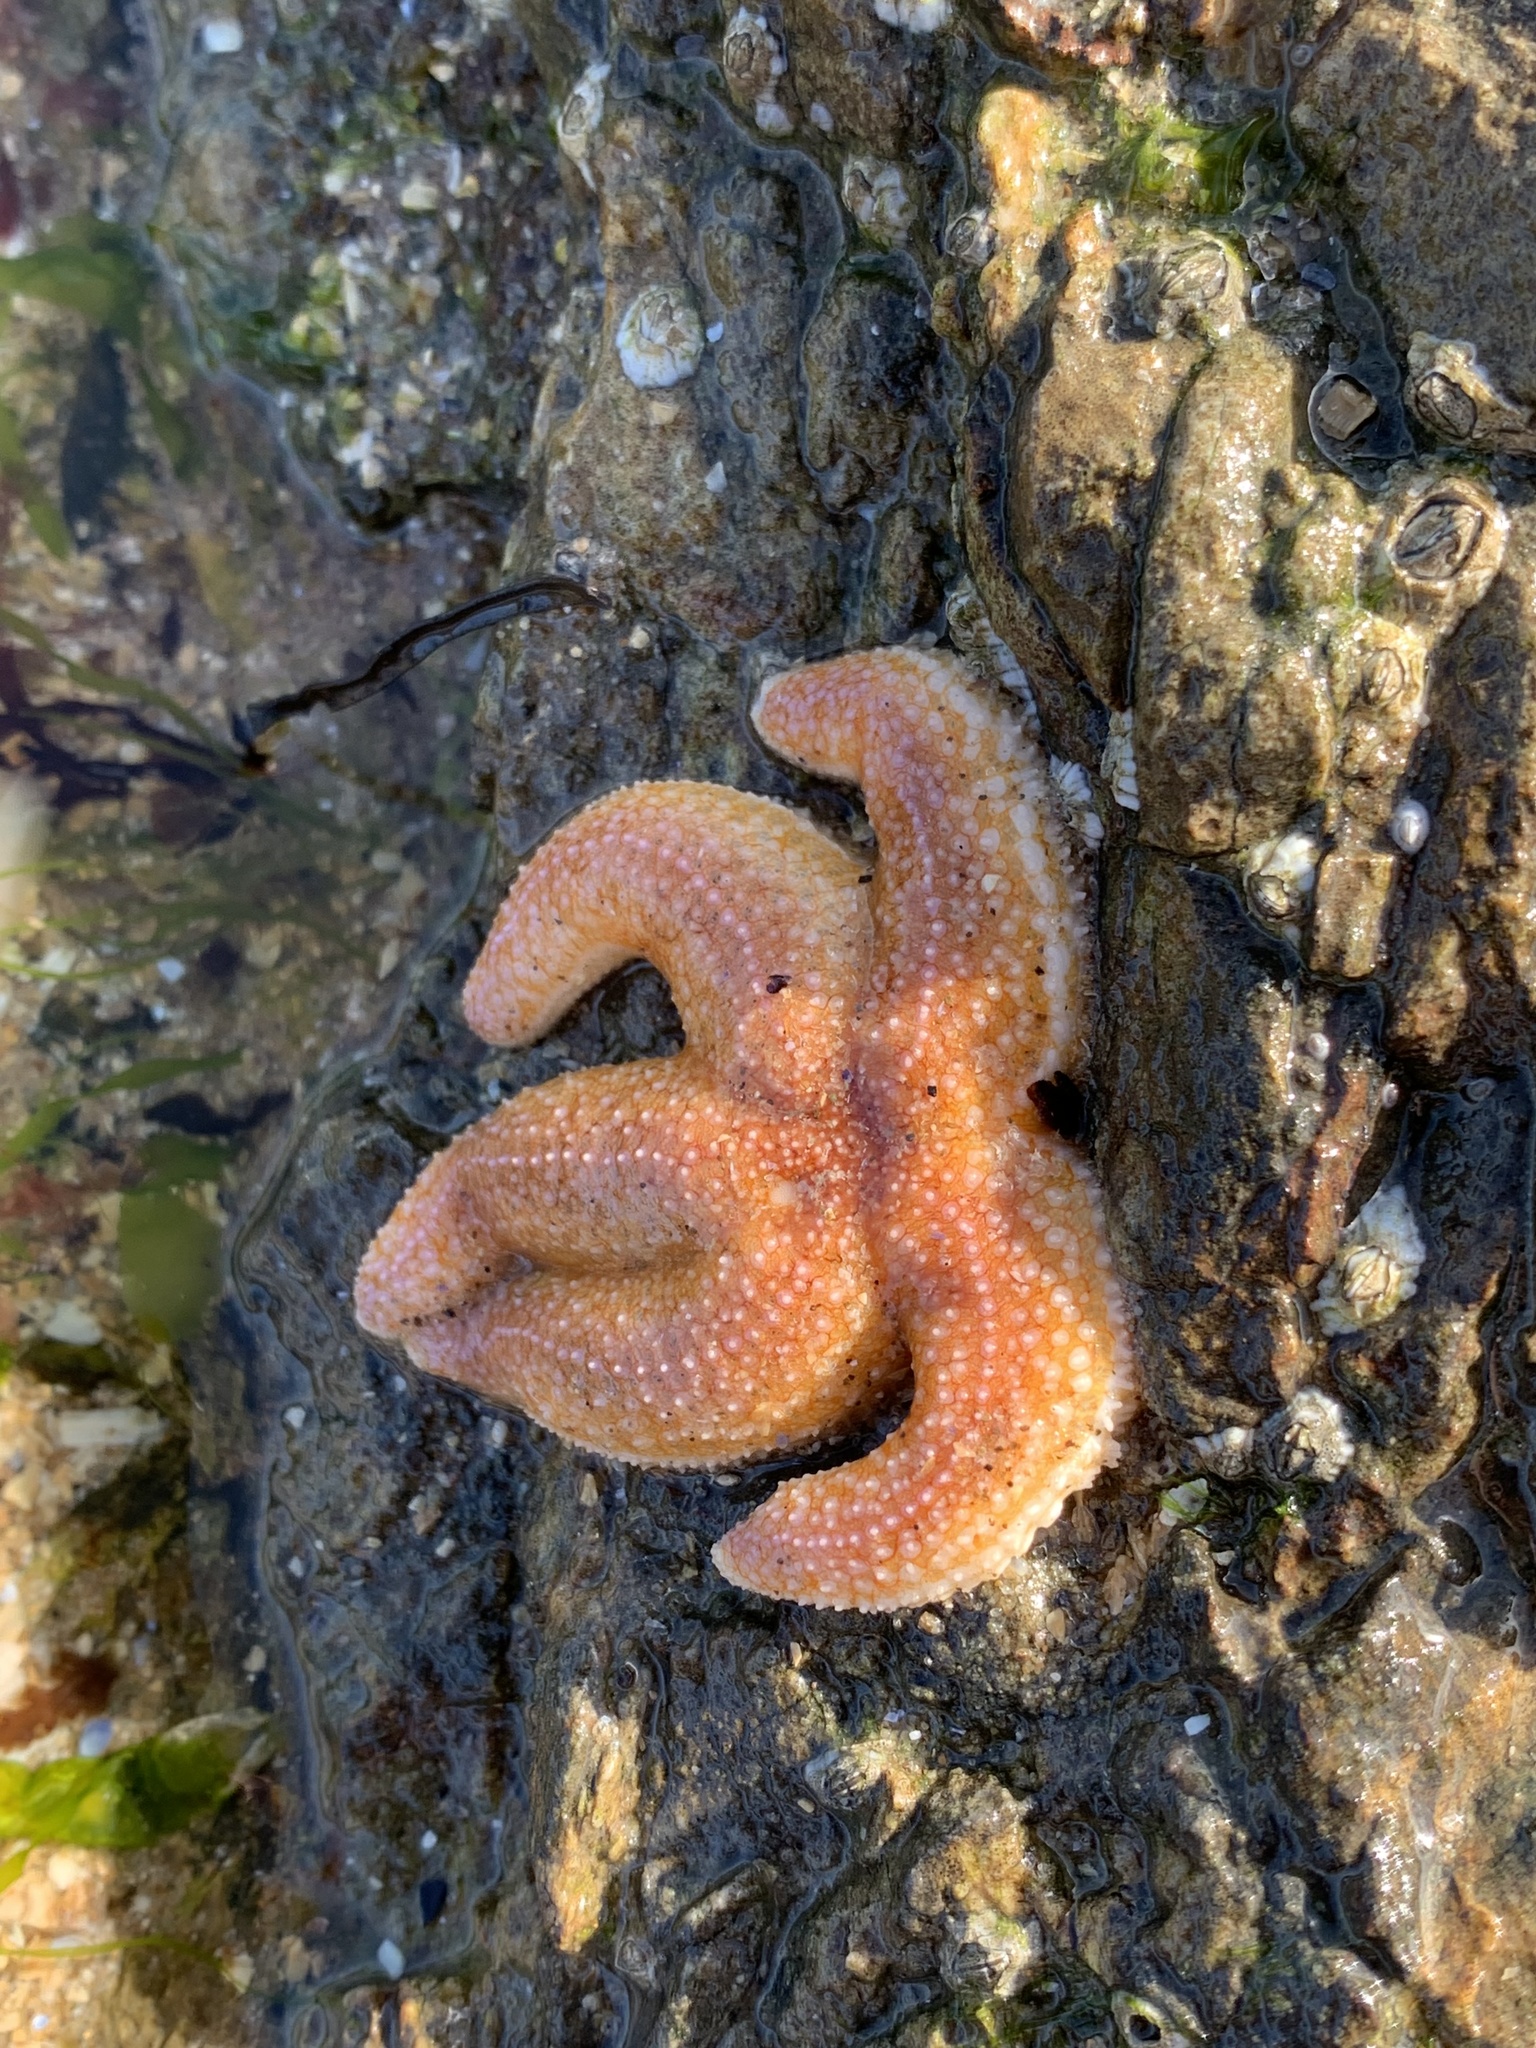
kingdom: Animalia
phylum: Echinodermata
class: Asteroidea
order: Forcipulatida
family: Asteriidae
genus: Asterias
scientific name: Asterias rubens
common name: Common starfish
